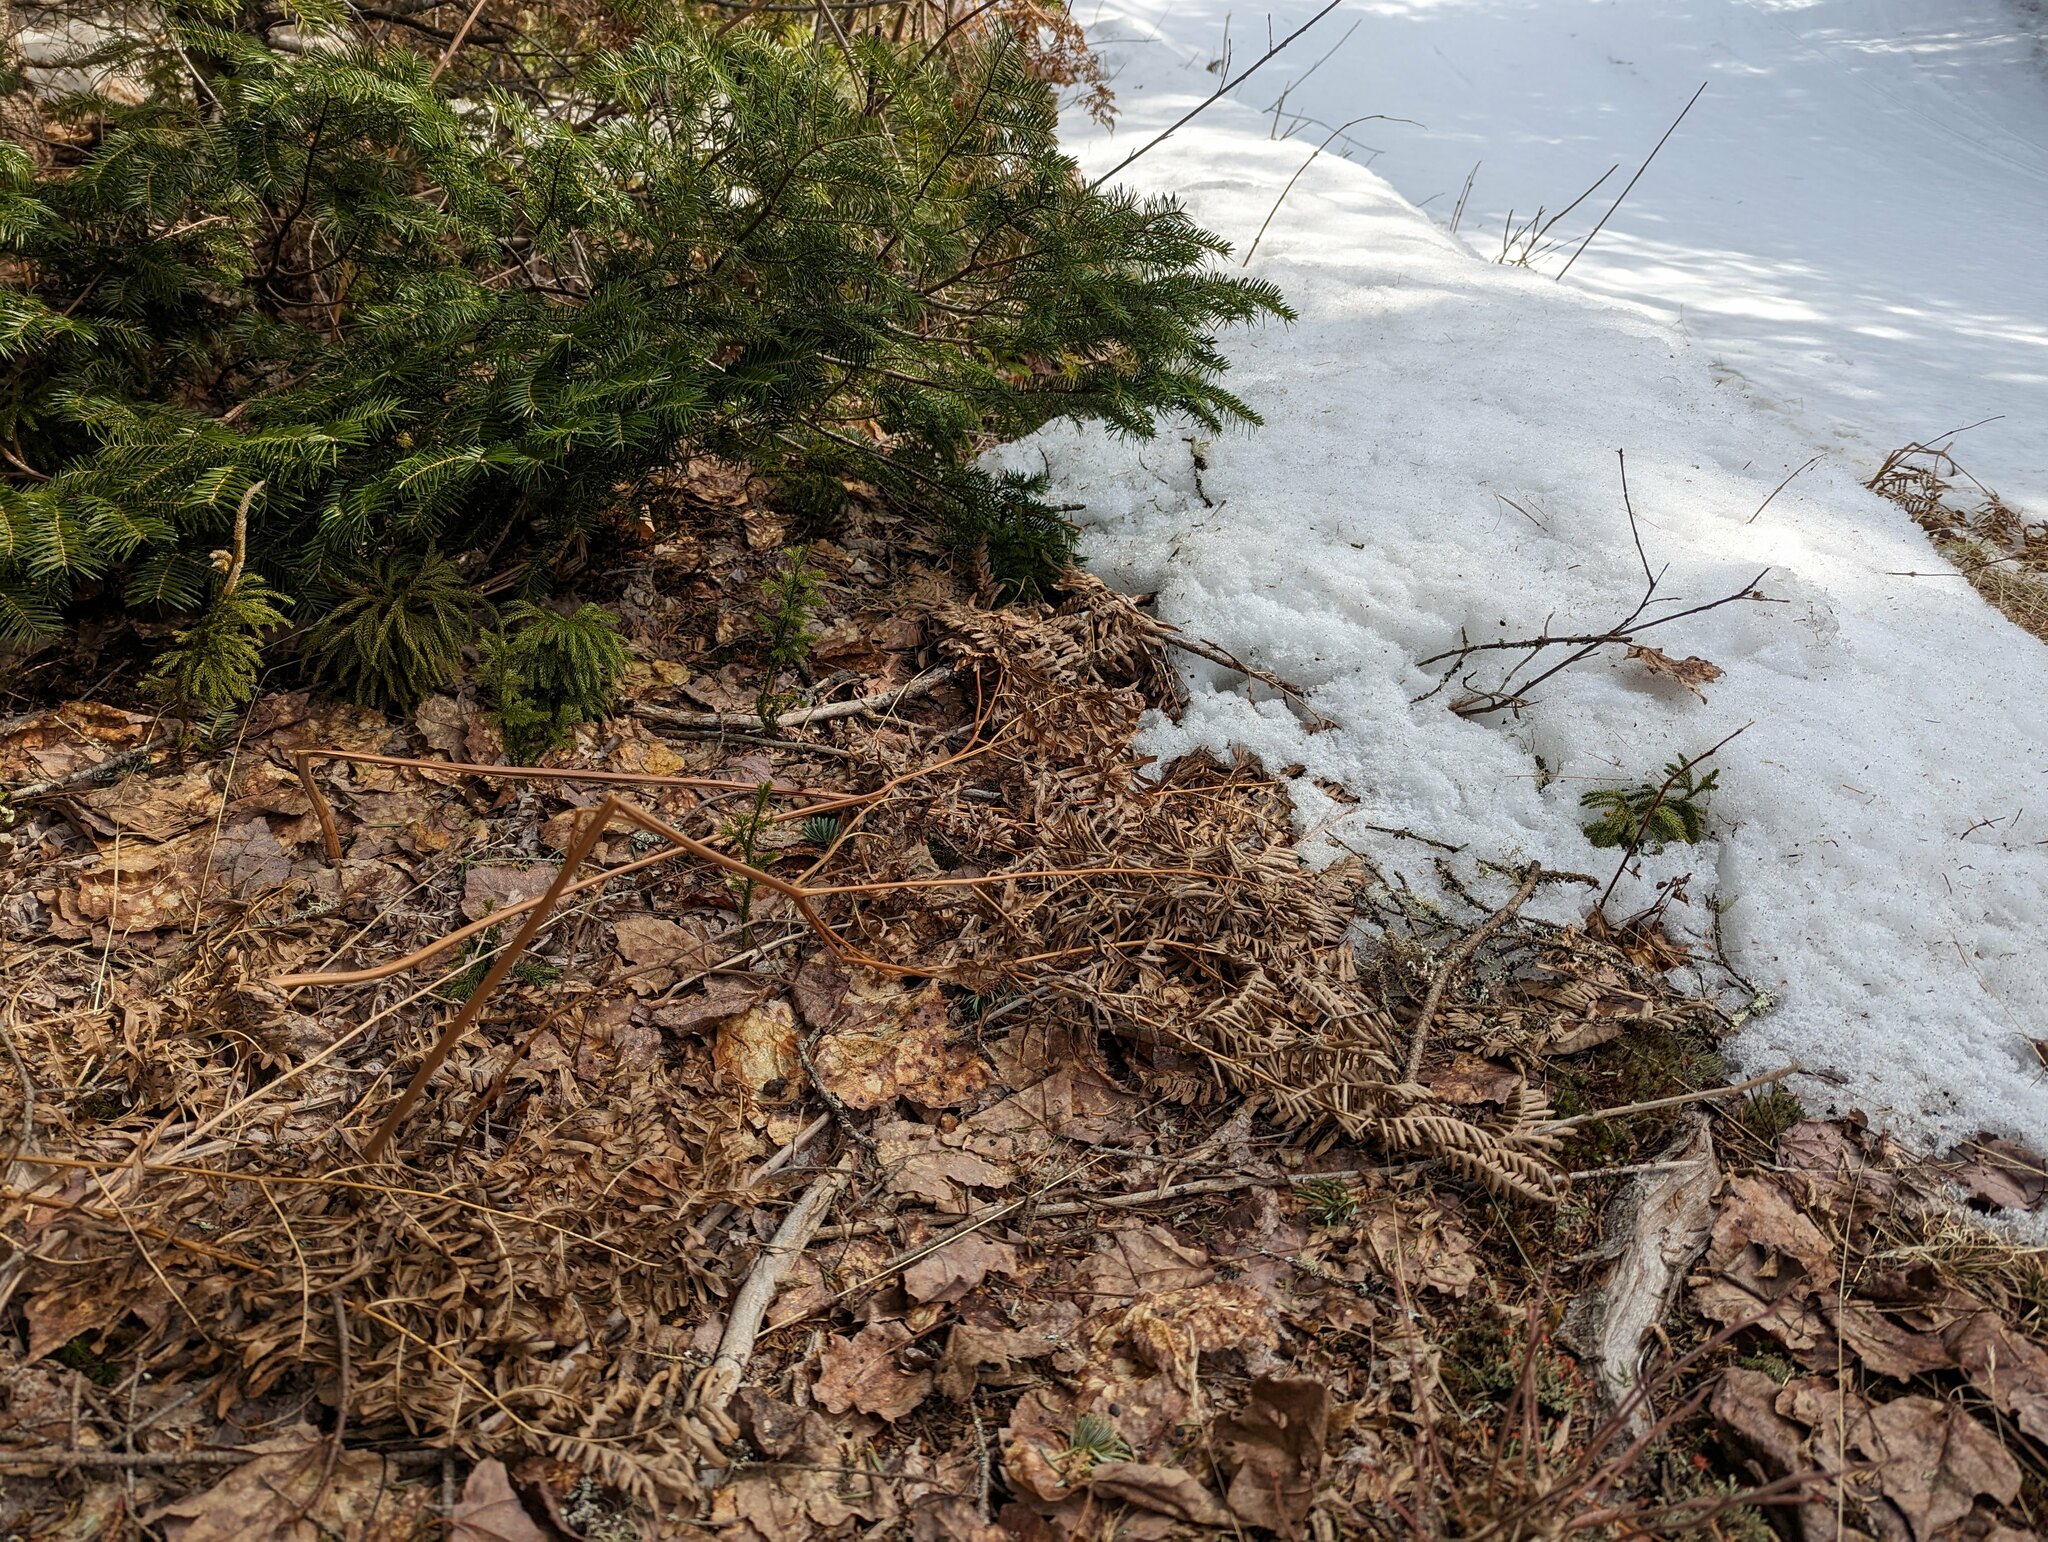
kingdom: Plantae
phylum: Tracheophyta
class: Polypodiopsida
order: Polypodiales
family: Dennstaedtiaceae
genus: Pteridium
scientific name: Pteridium aquilinum
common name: Bracken
